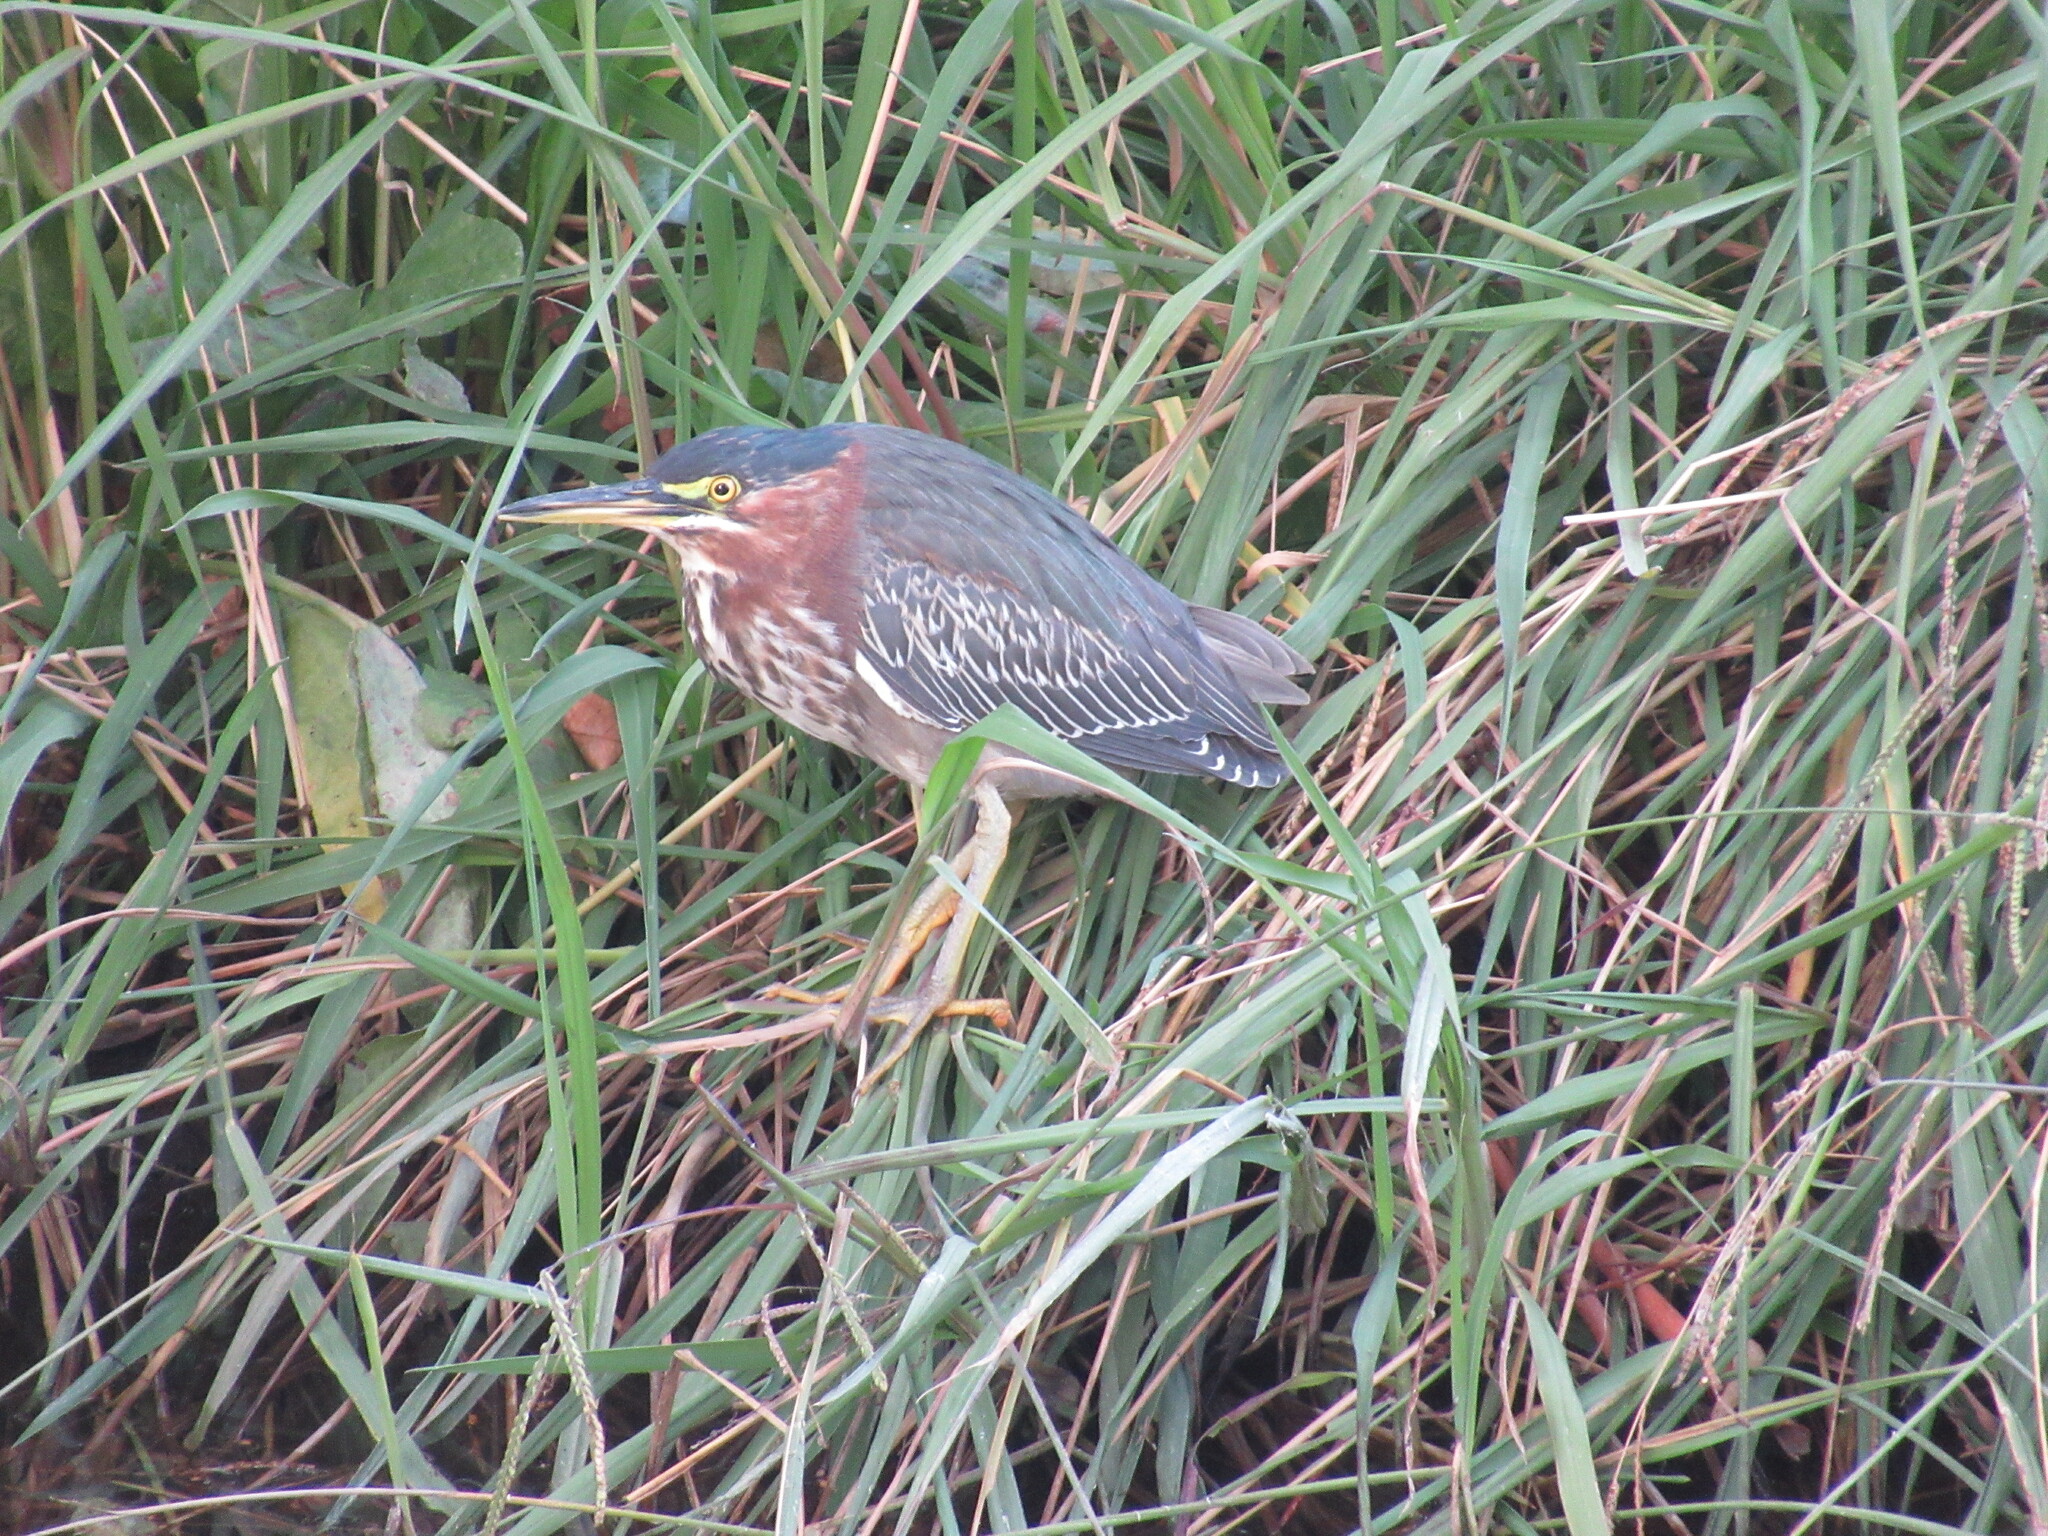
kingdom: Animalia
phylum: Chordata
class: Aves
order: Pelecaniformes
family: Ardeidae
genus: Butorides
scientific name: Butorides virescens
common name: Green heron
